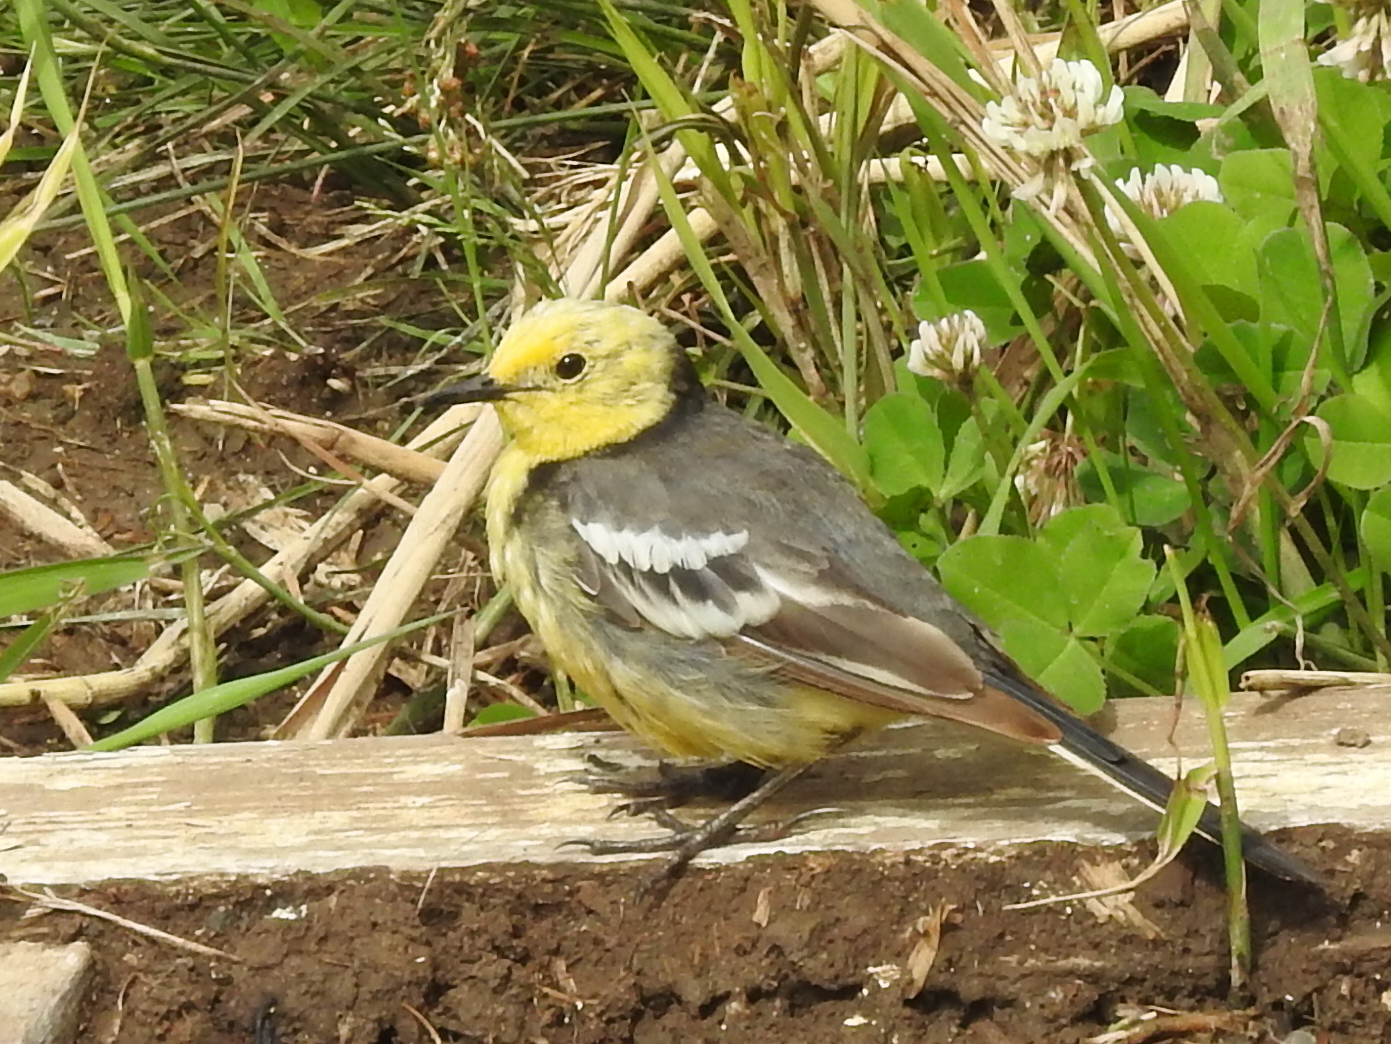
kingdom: Animalia
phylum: Chordata
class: Aves
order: Passeriformes
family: Motacillidae
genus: Motacilla
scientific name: Motacilla citreola
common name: Citrine wagtail
